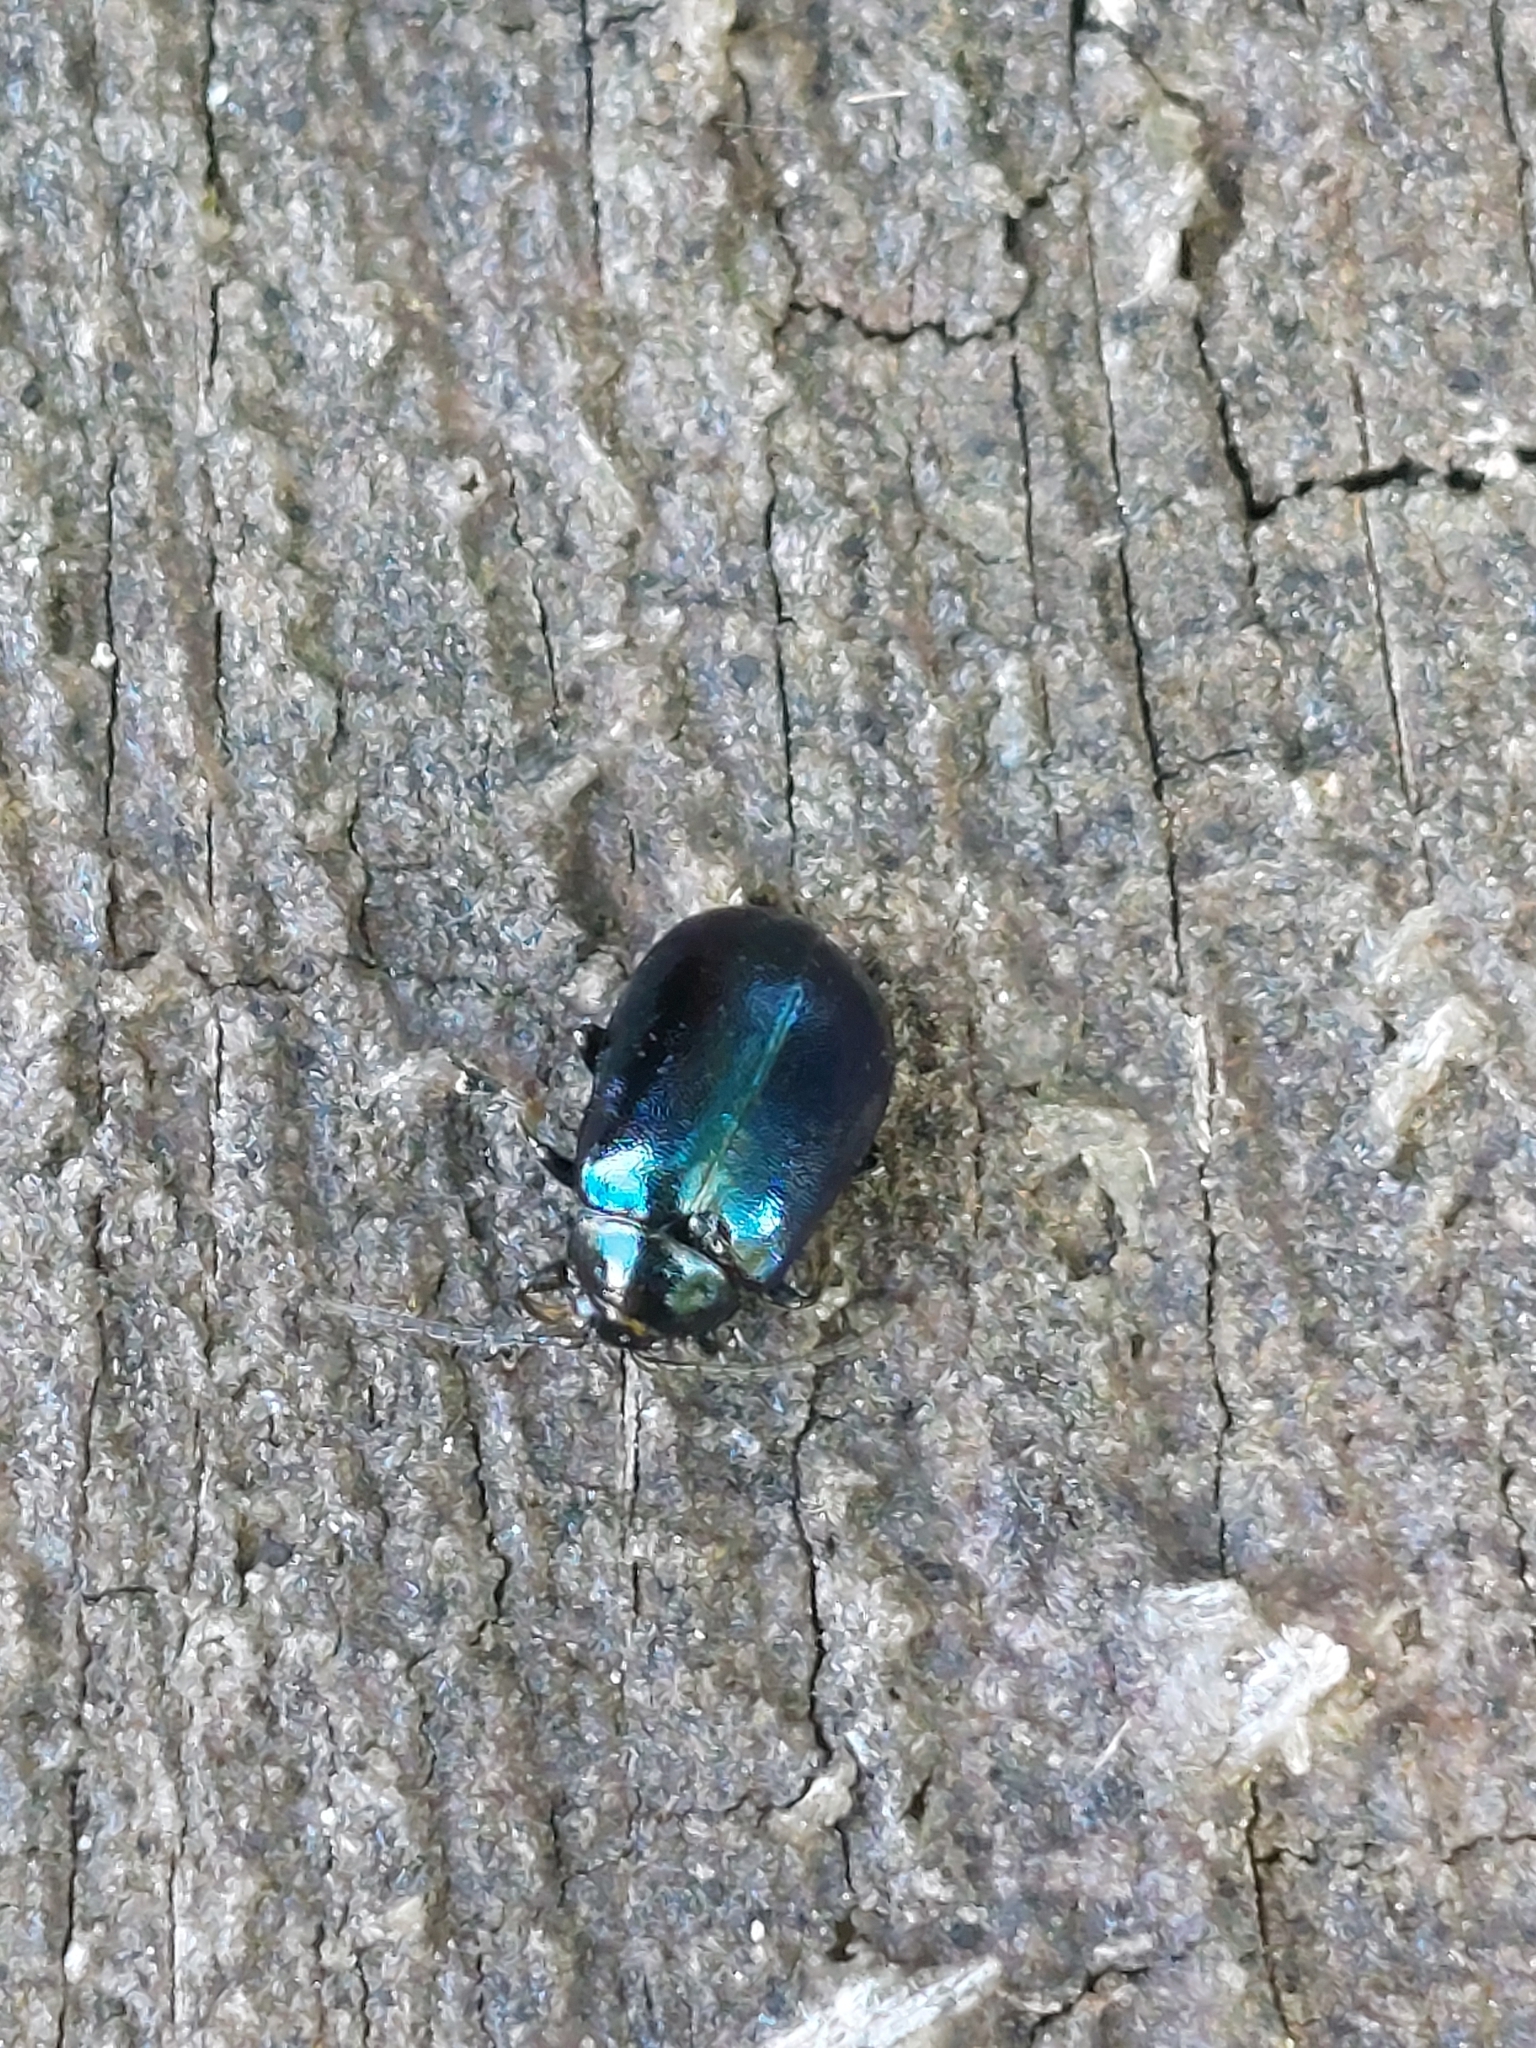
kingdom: Animalia
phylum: Arthropoda
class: Insecta
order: Coleoptera
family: Chrysomelidae
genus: Agelastica
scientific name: Agelastica alni
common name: Alder leaf beetle
